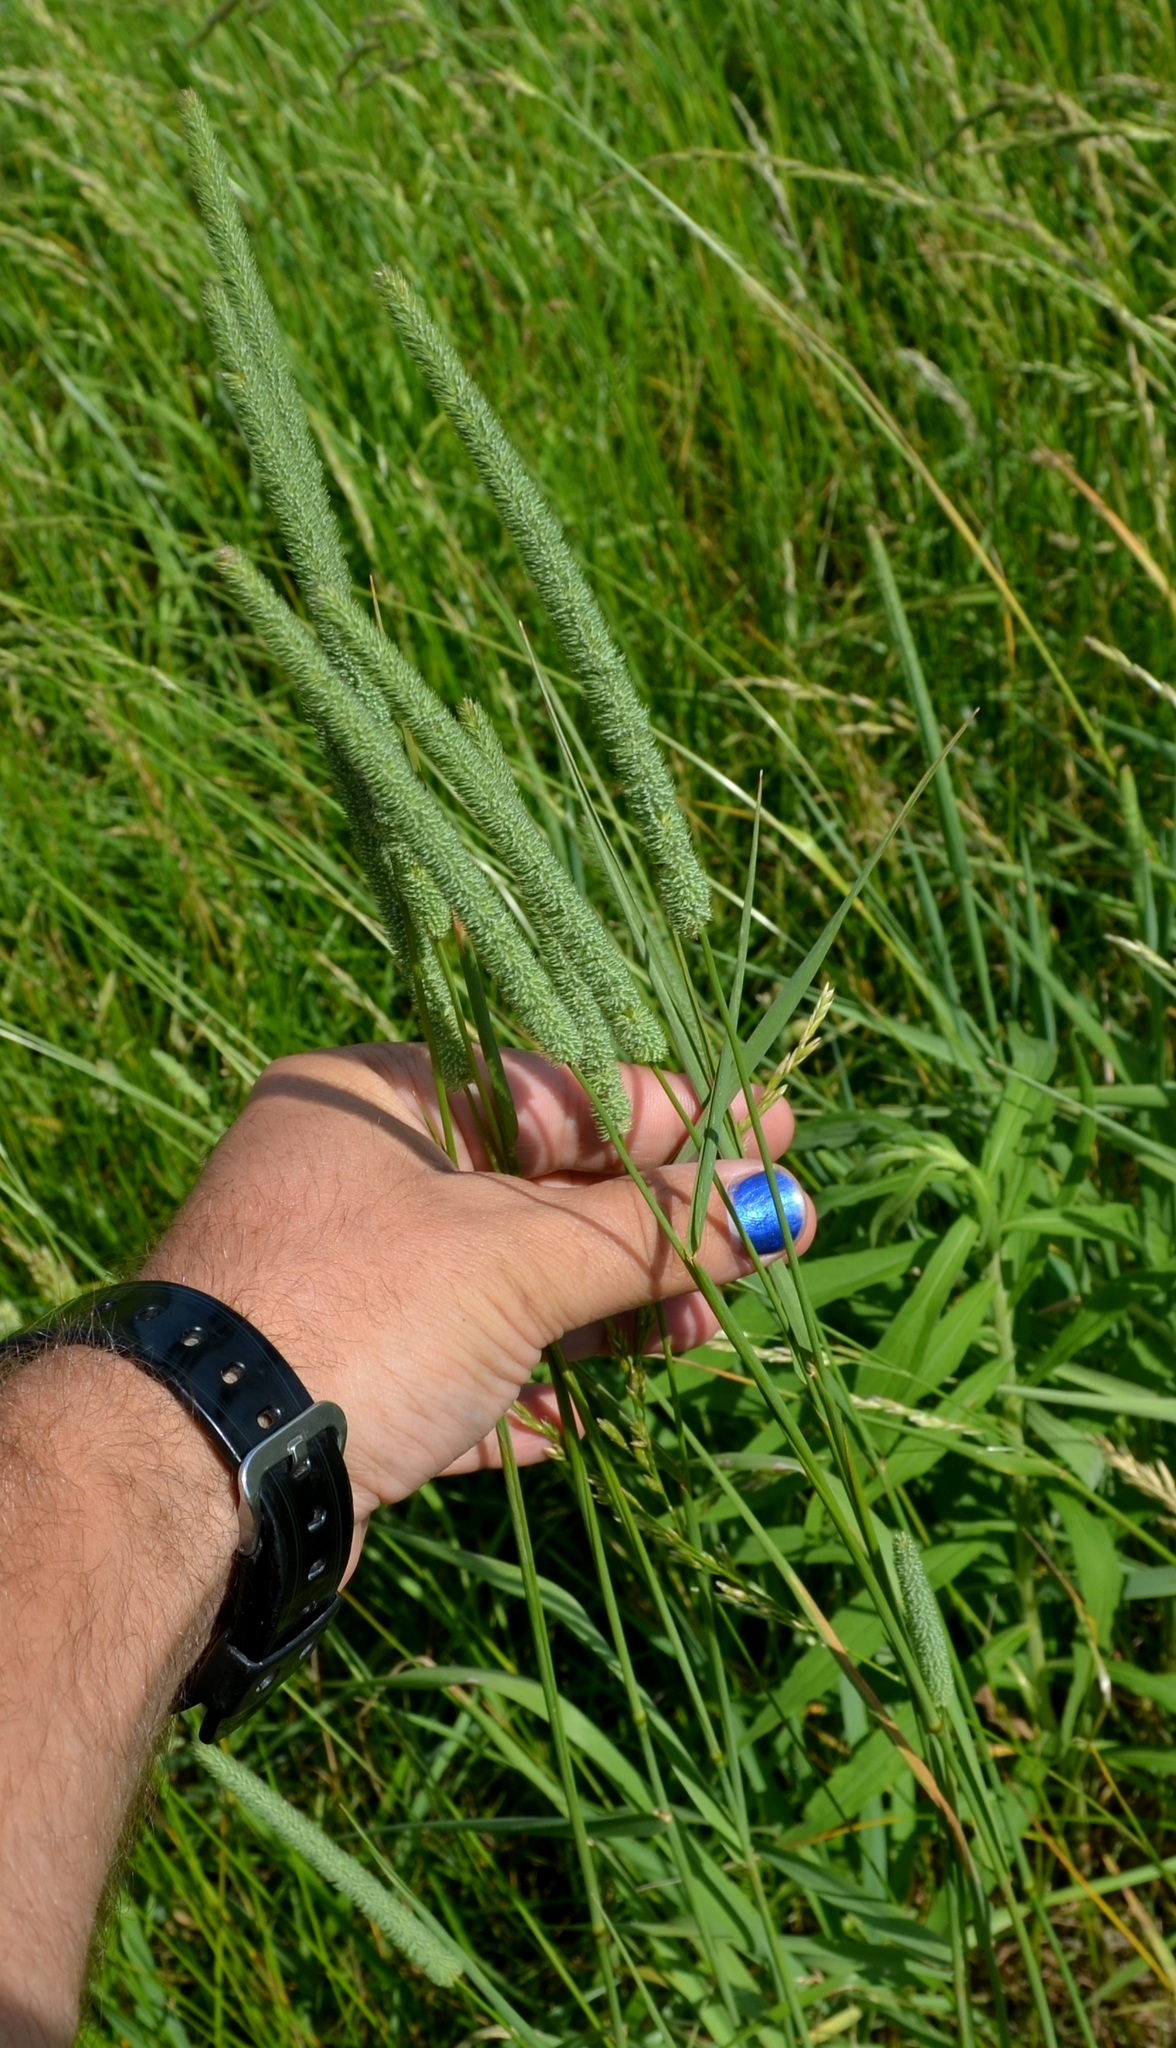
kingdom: Plantae
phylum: Tracheophyta
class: Liliopsida
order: Poales
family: Poaceae
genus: Phleum
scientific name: Phleum pratense
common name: Timothy grass
